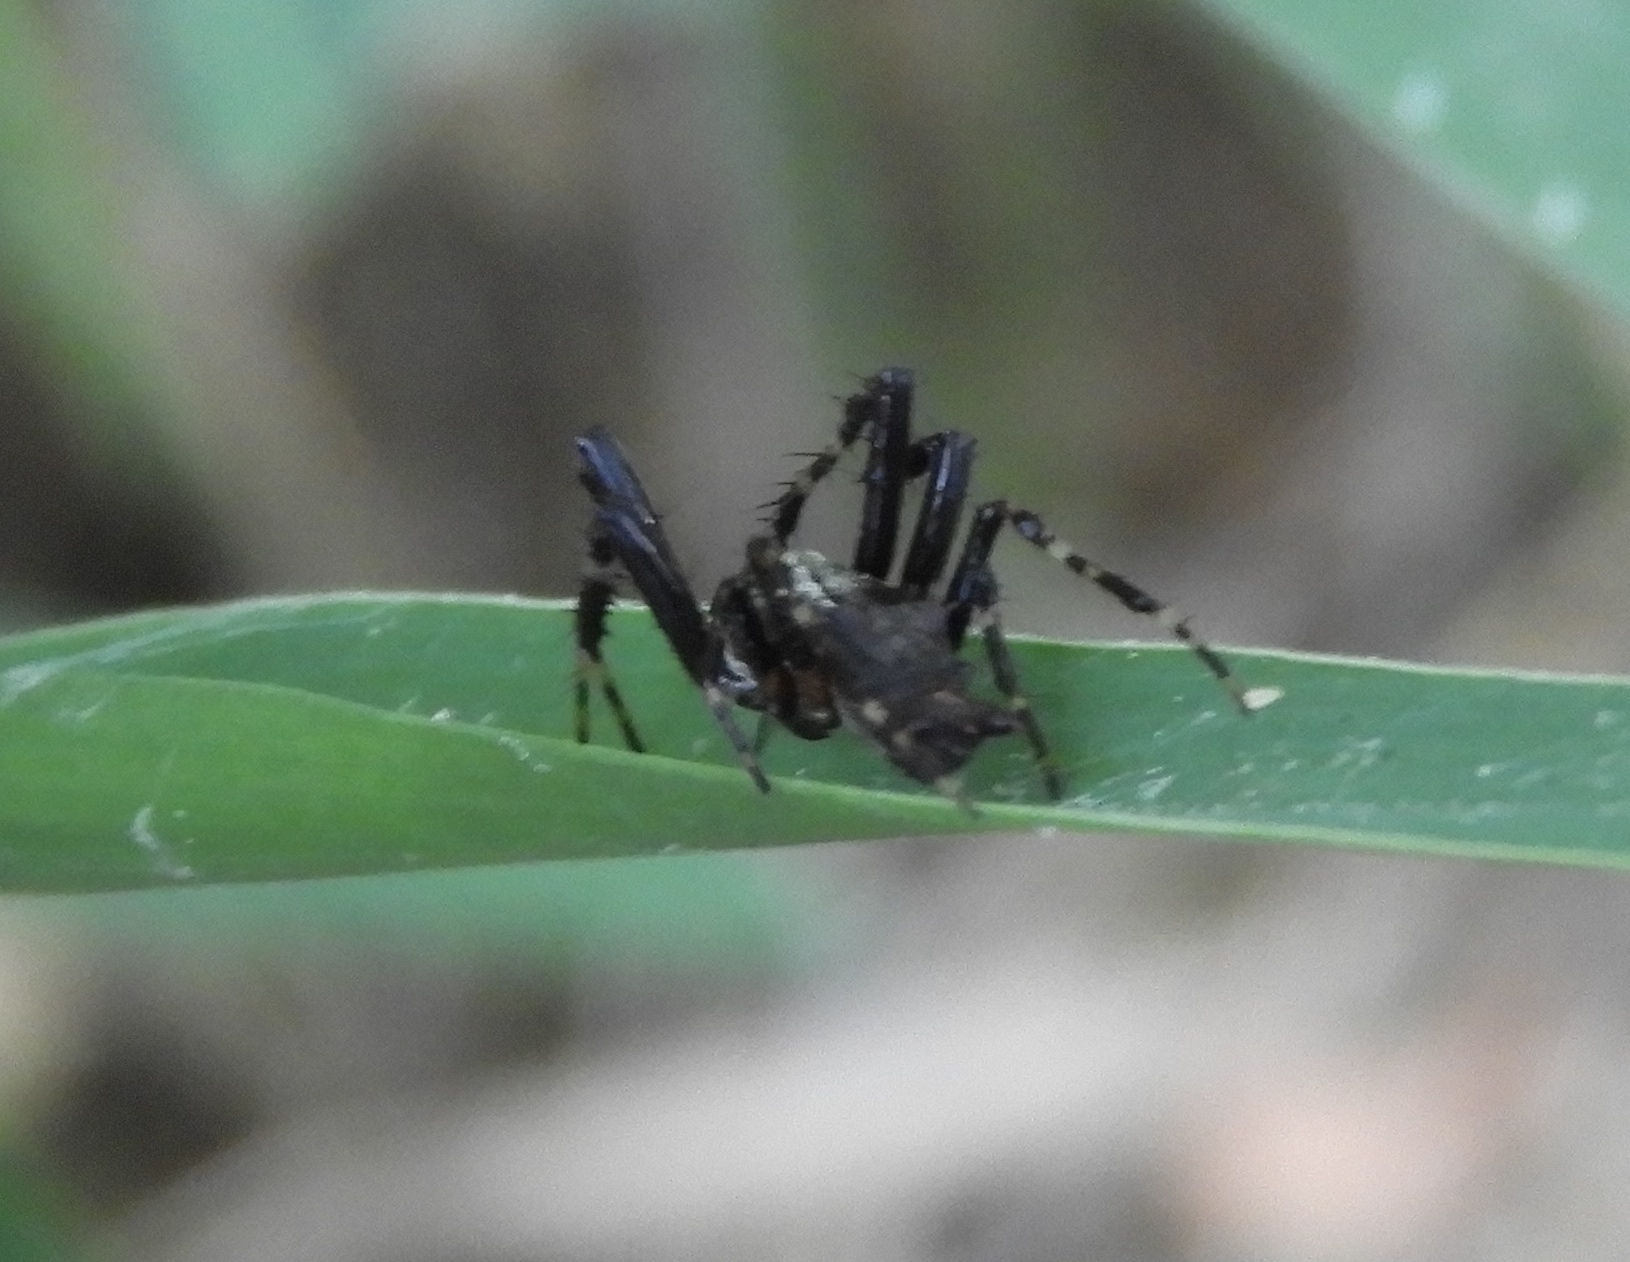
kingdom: Animalia
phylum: Arthropoda
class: Arachnida
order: Araneae
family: Araneidae
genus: Wagneriana
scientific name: Wagneriana
